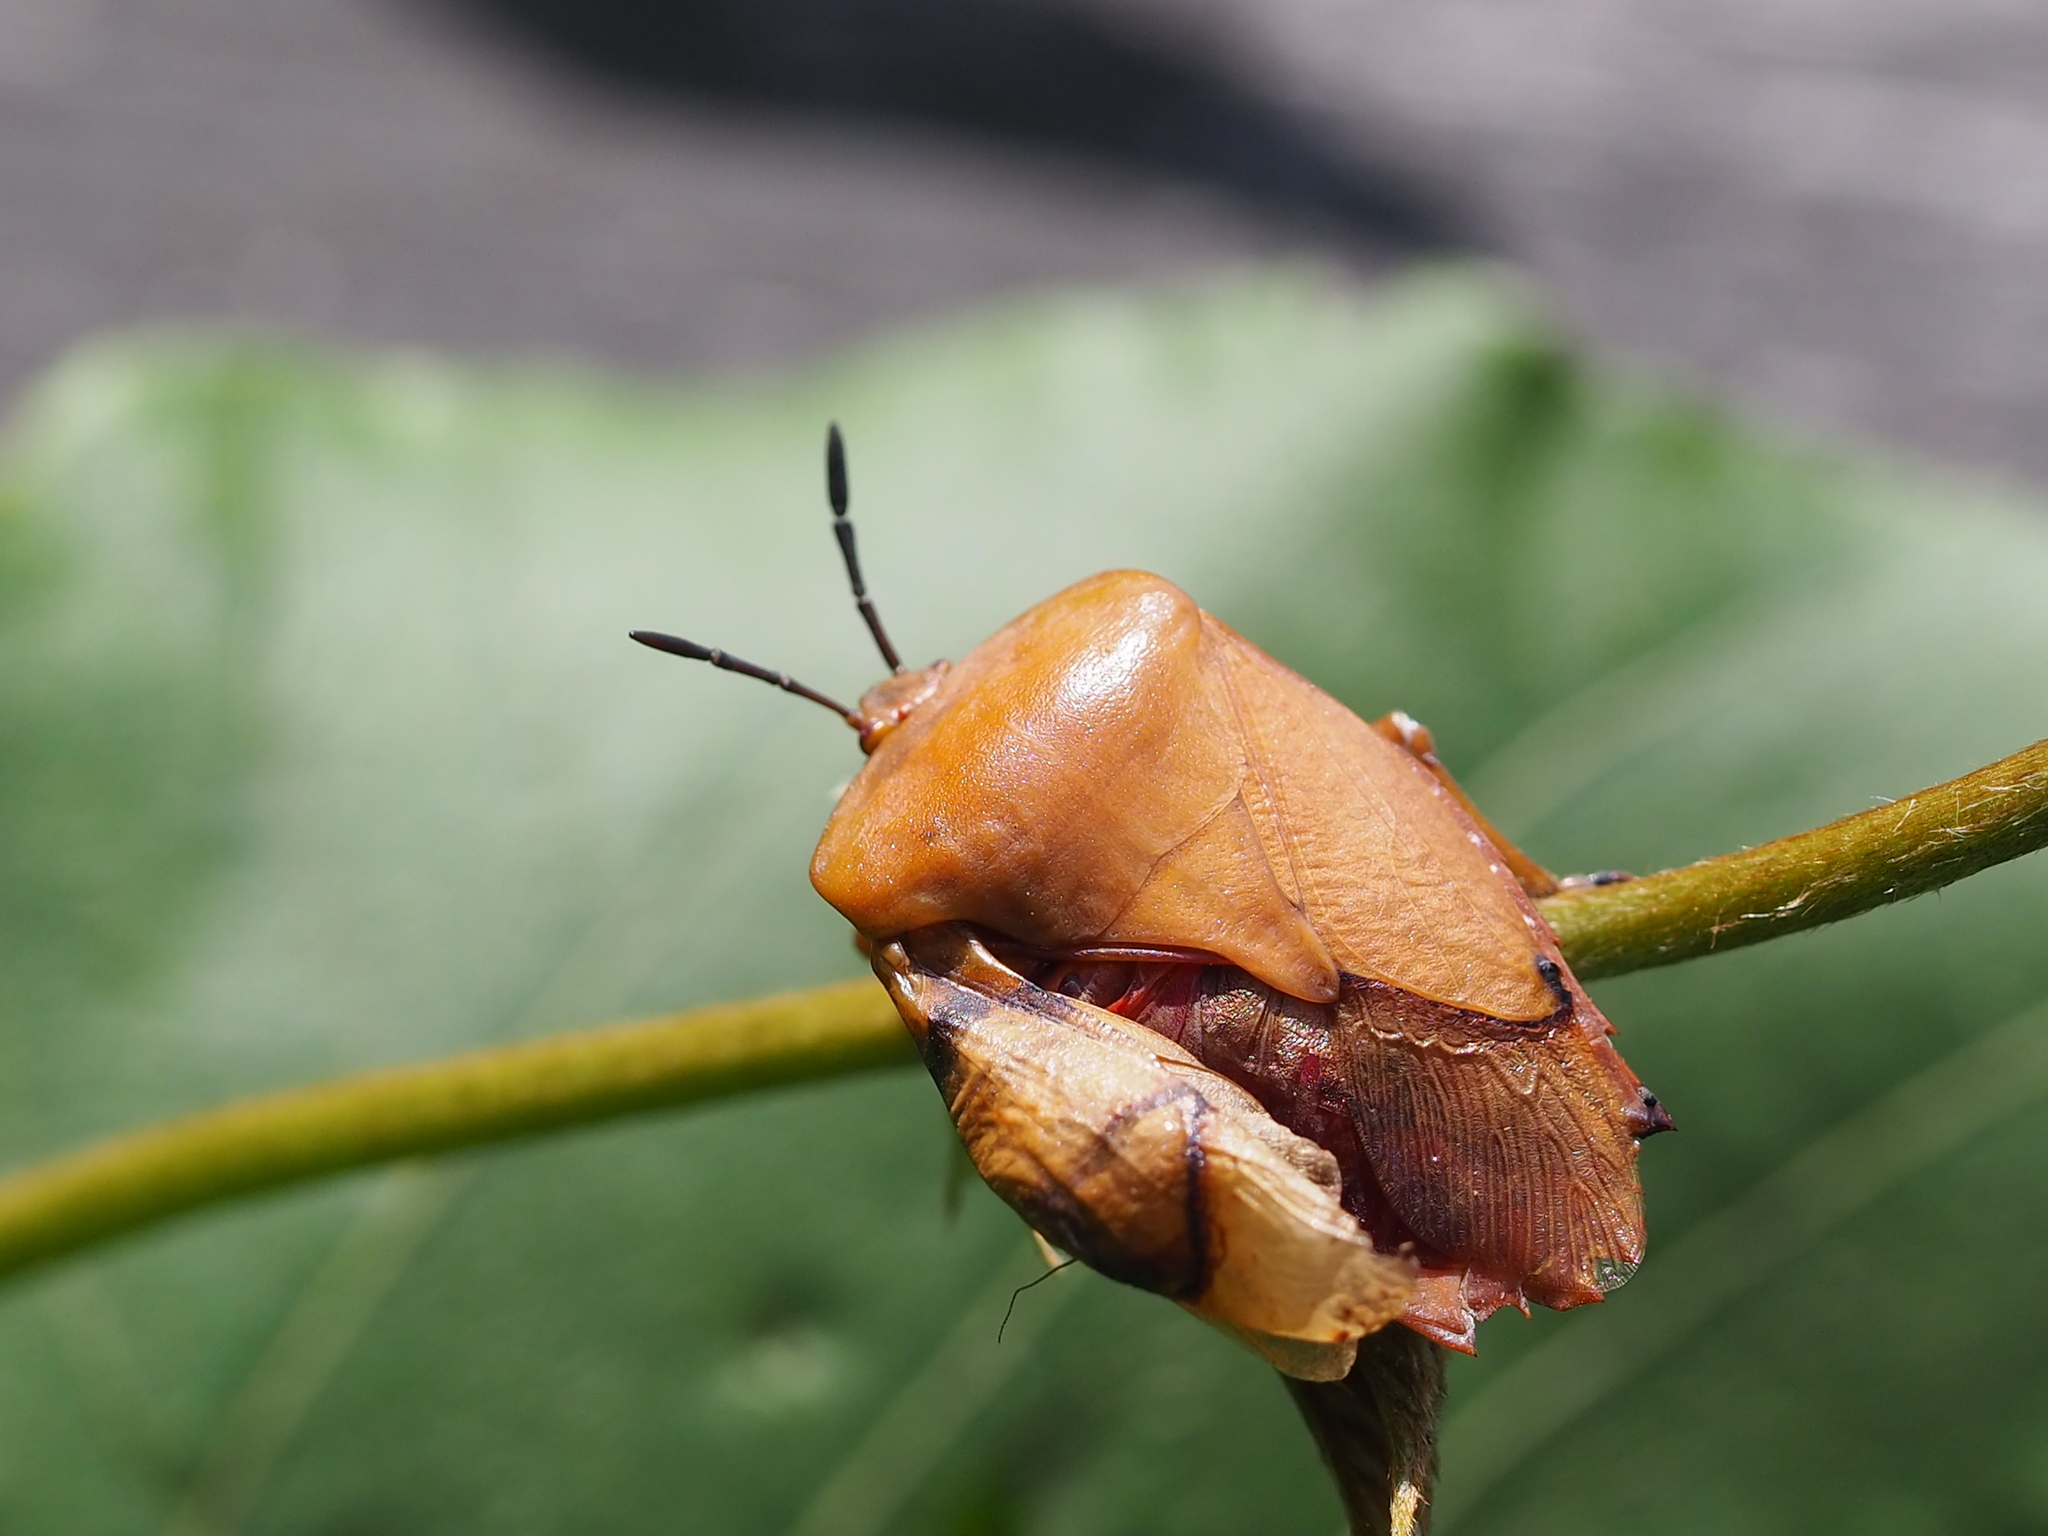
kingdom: Animalia
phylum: Arthropoda
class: Insecta
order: Hemiptera
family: Tessaratomidae
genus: Tessaratoma
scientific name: Tessaratoma papillosa
